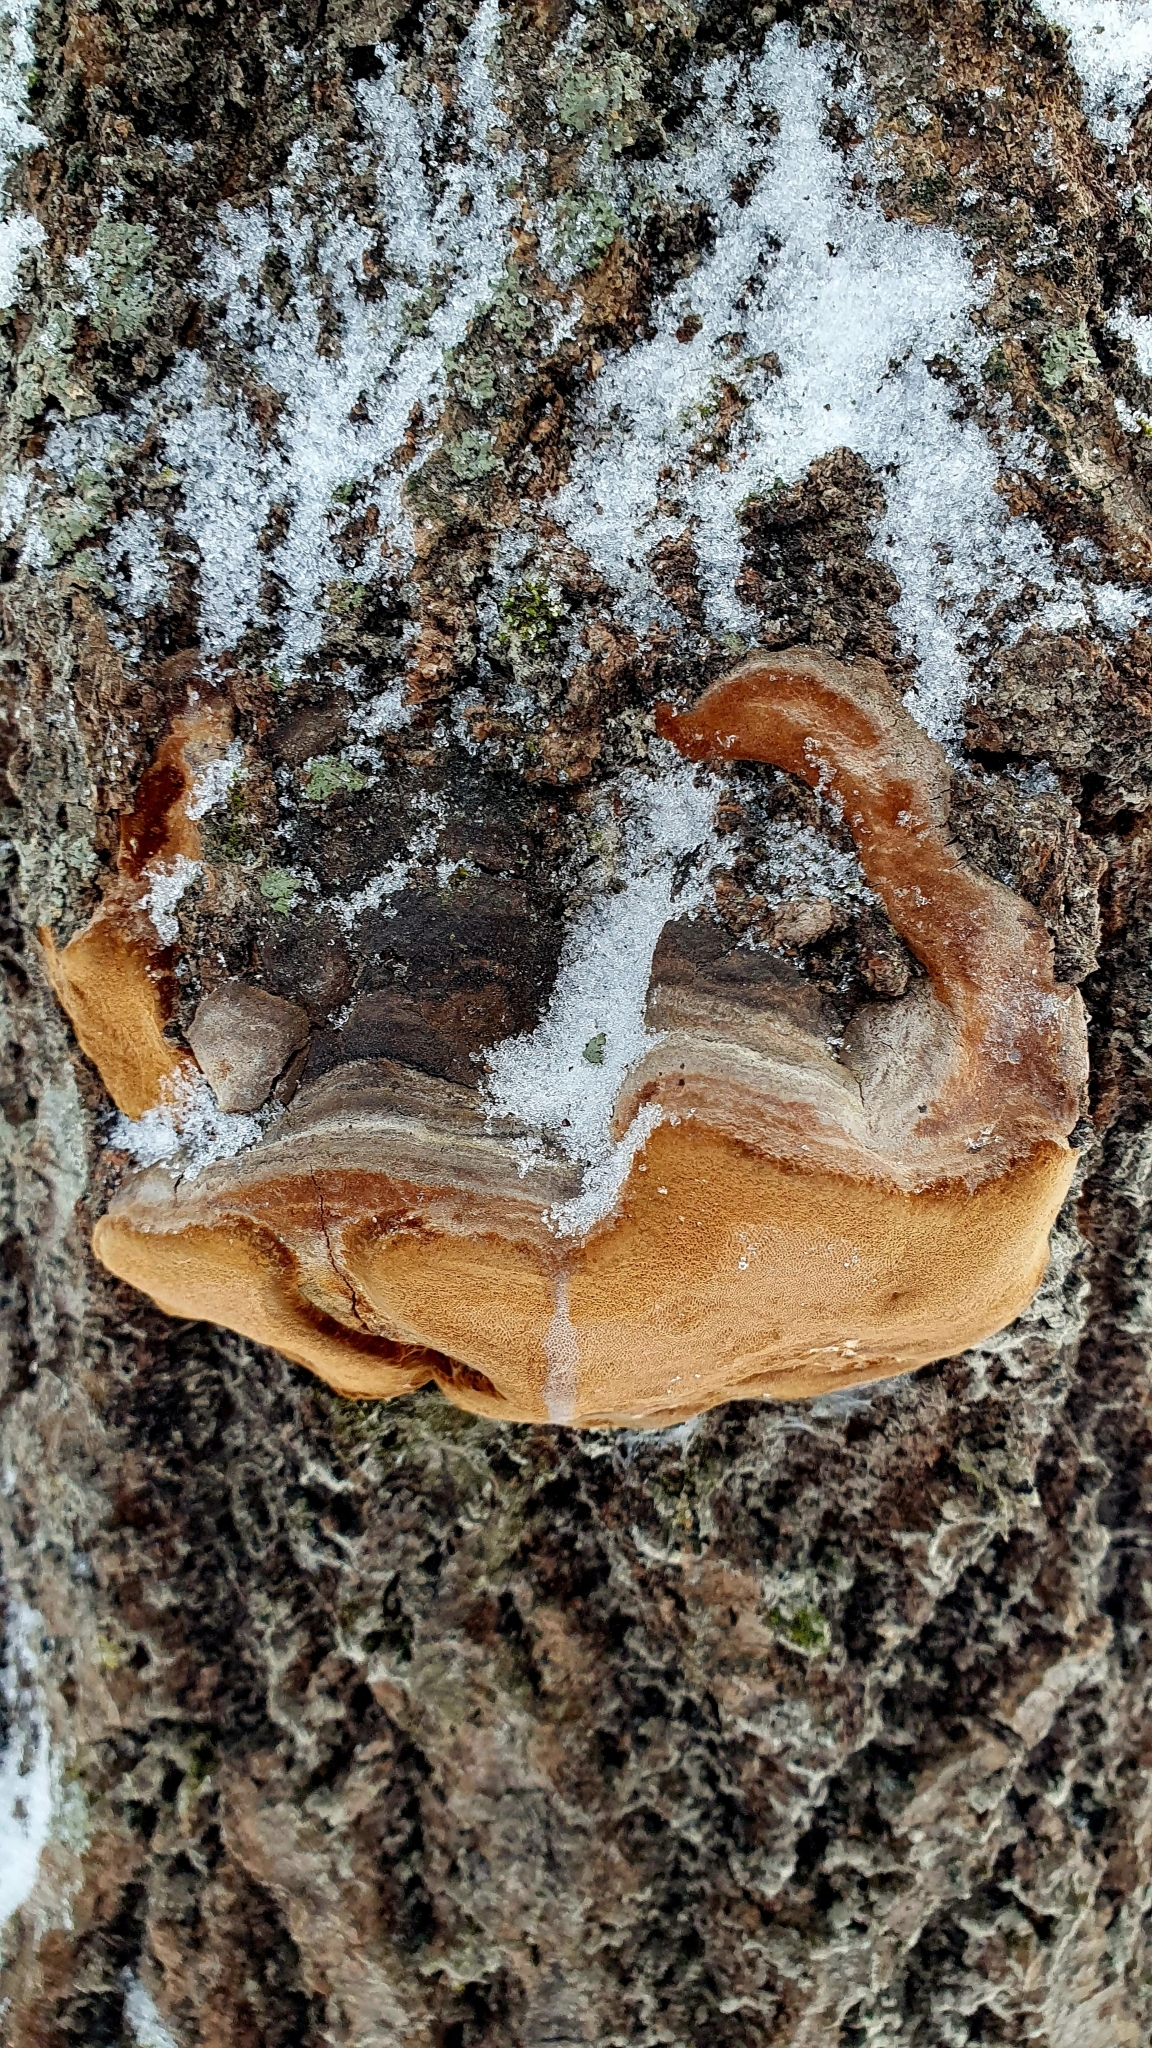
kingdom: Fungi
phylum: Basidiomycota
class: Agaricomycetes
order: Hymenochaetales
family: Hymenochaetaceae
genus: Phellinus
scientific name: Phellinus tremulae
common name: Aspen bracket
